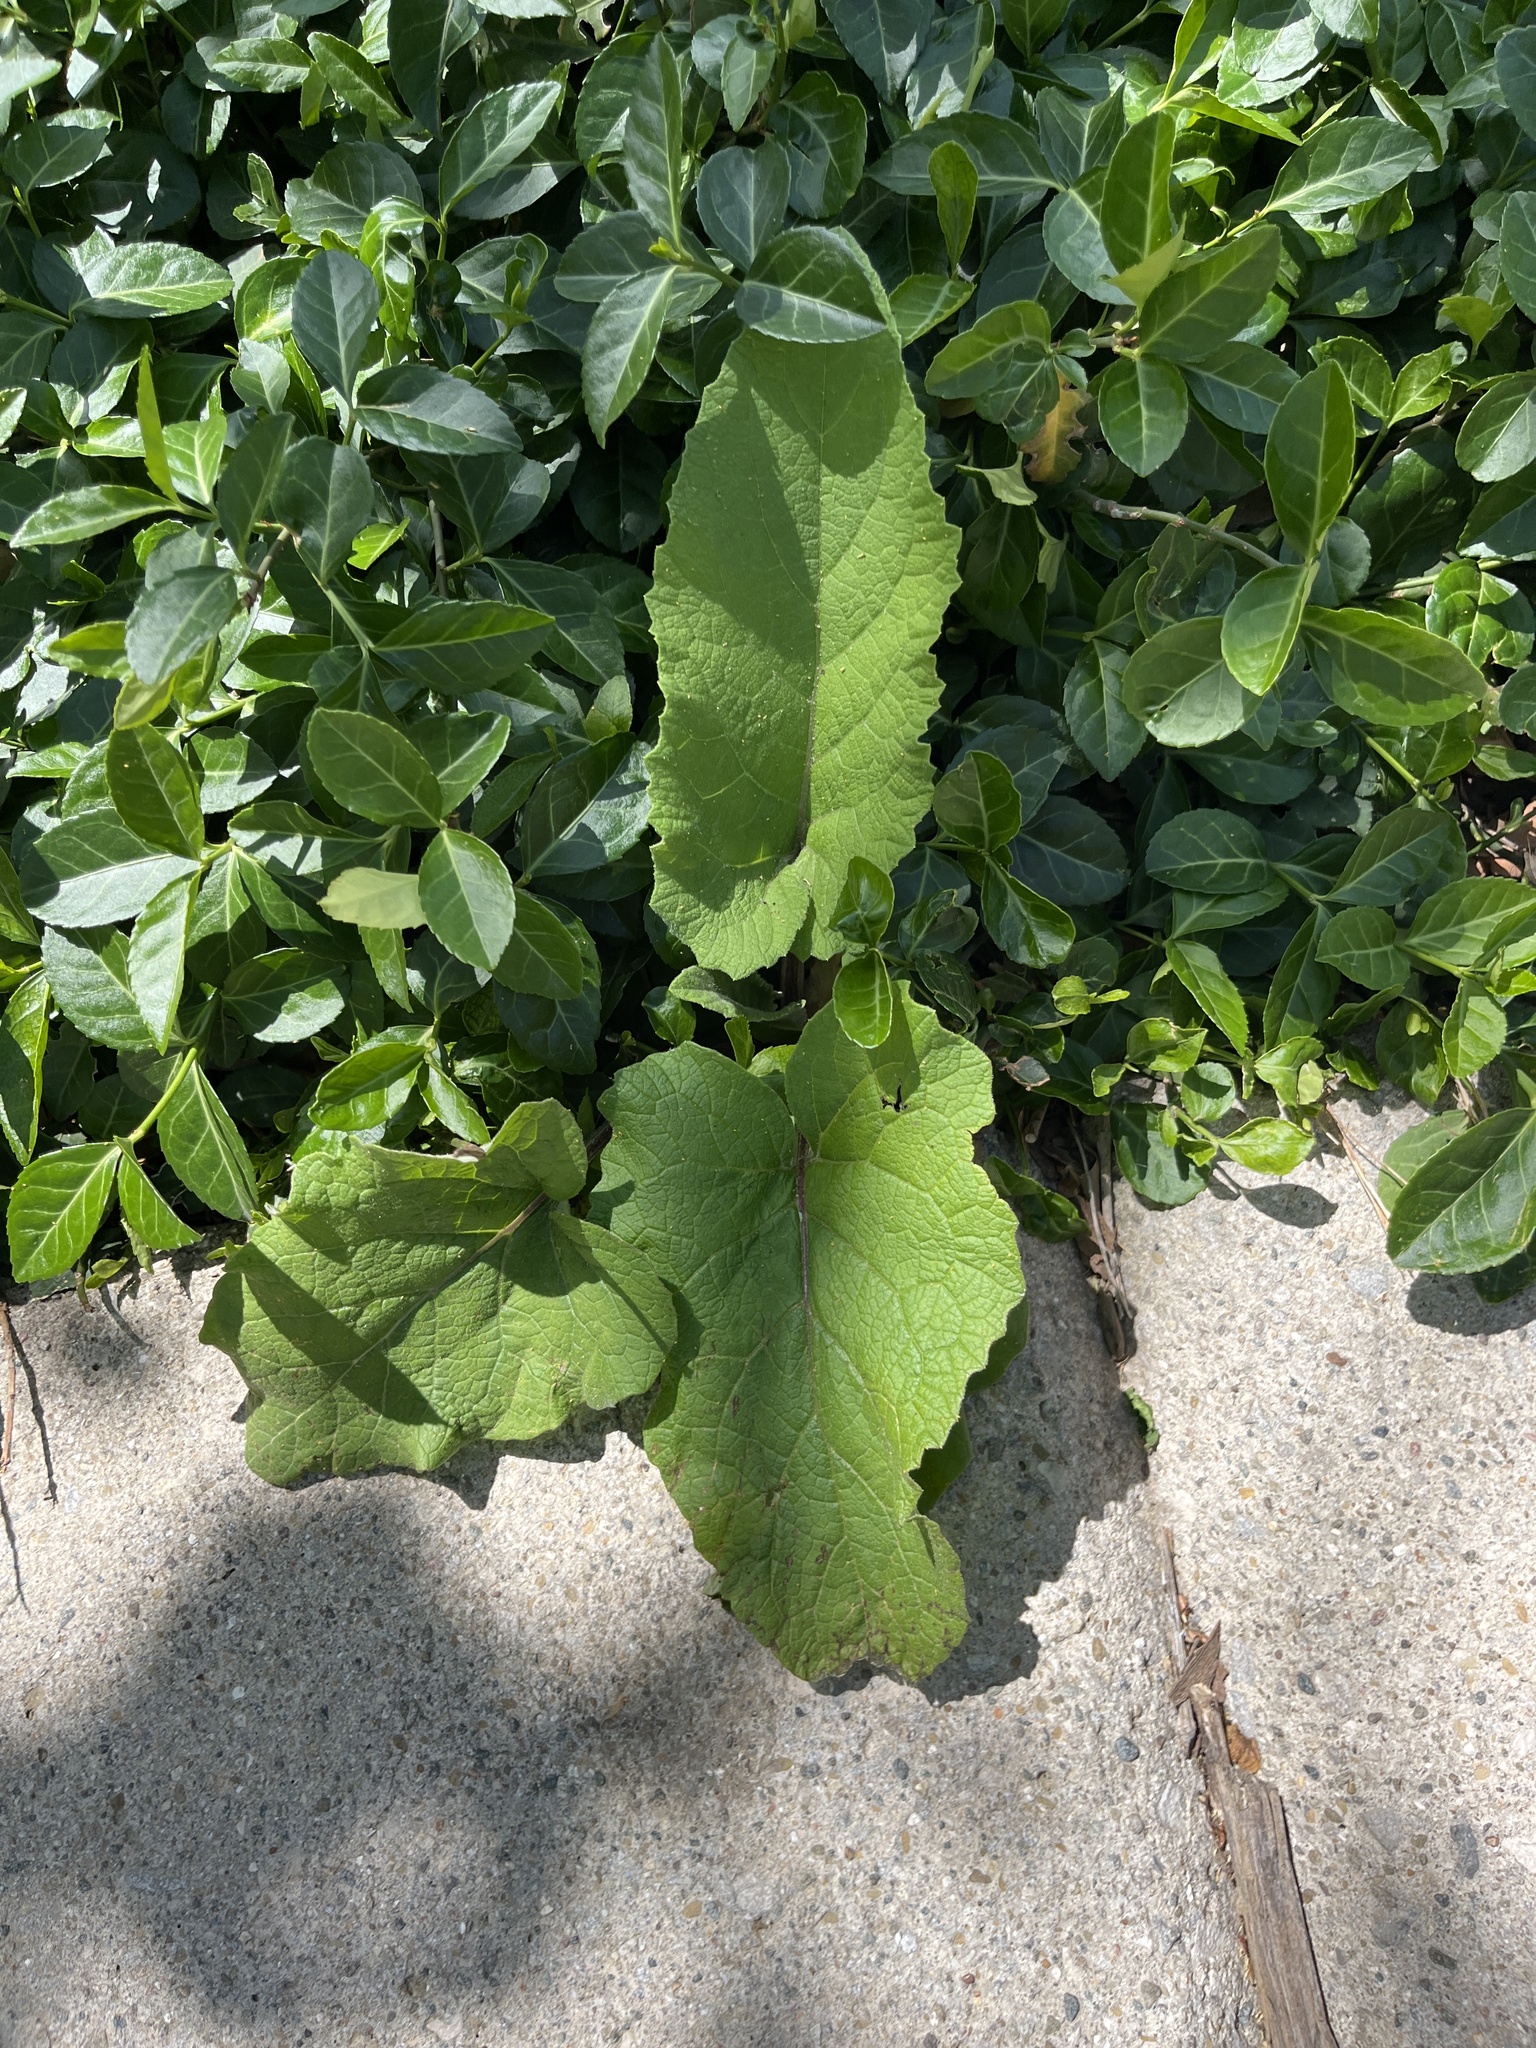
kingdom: Plantae
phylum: Tracheophyta
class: Magnoliopsida
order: Asterales
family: Asteraceae
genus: Arctium
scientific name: Arctium
